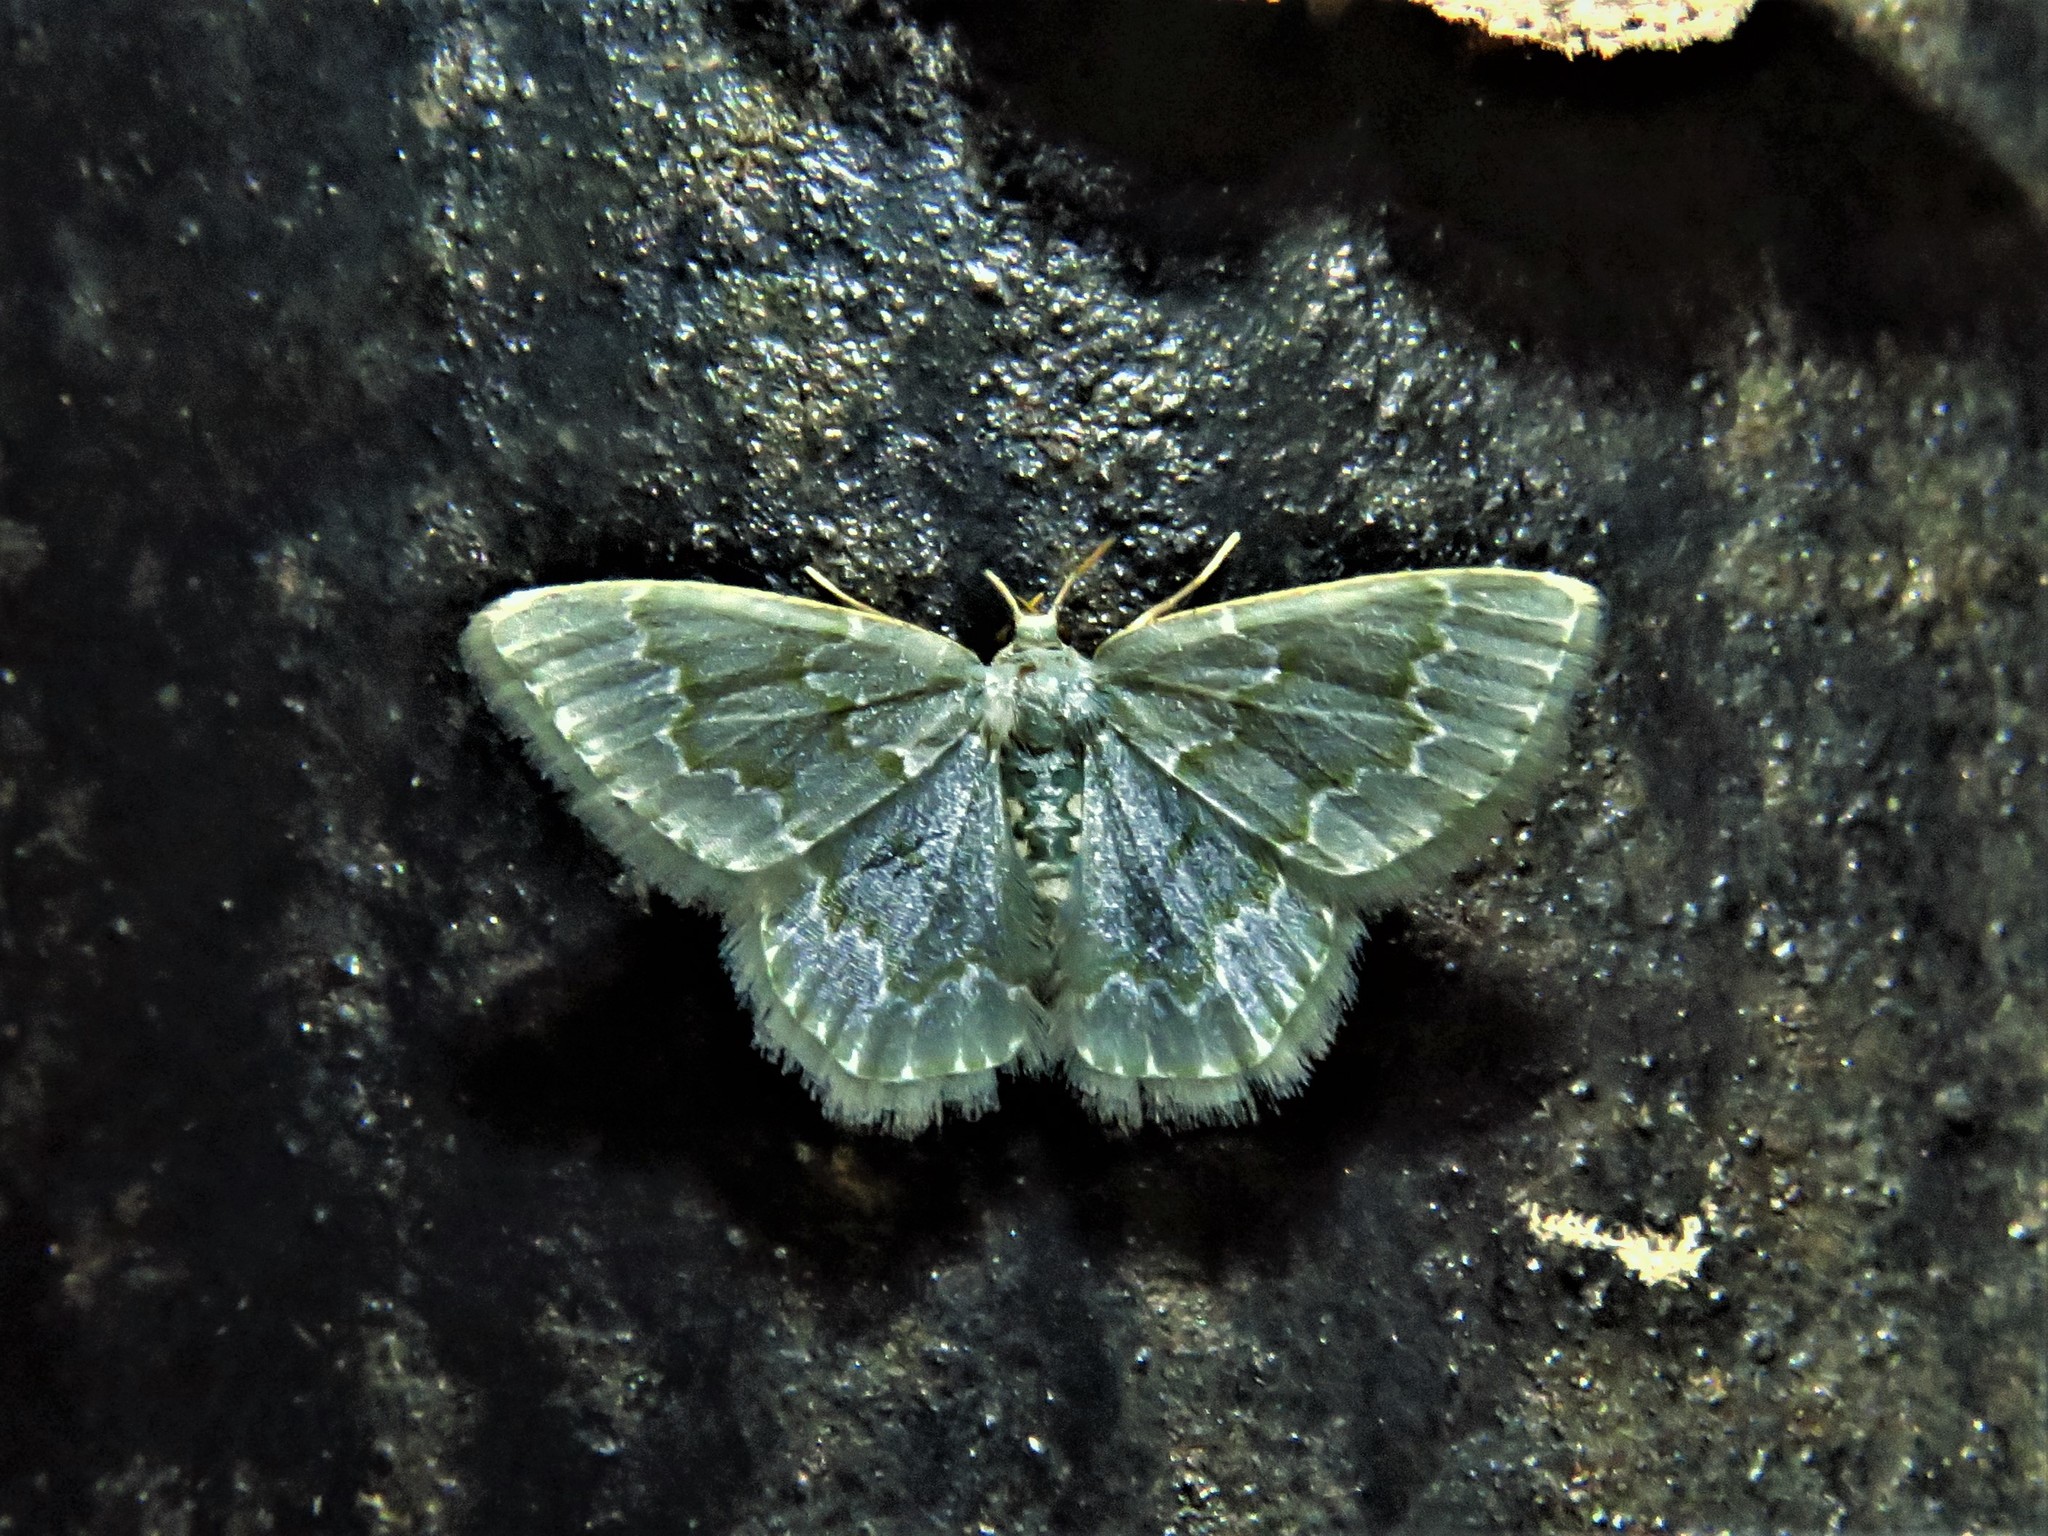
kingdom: Animalia
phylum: Arthropoda
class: Insecta
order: Lepidoptera
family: Geometridae
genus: Chloropteryx
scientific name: Chloropteryx paularia
